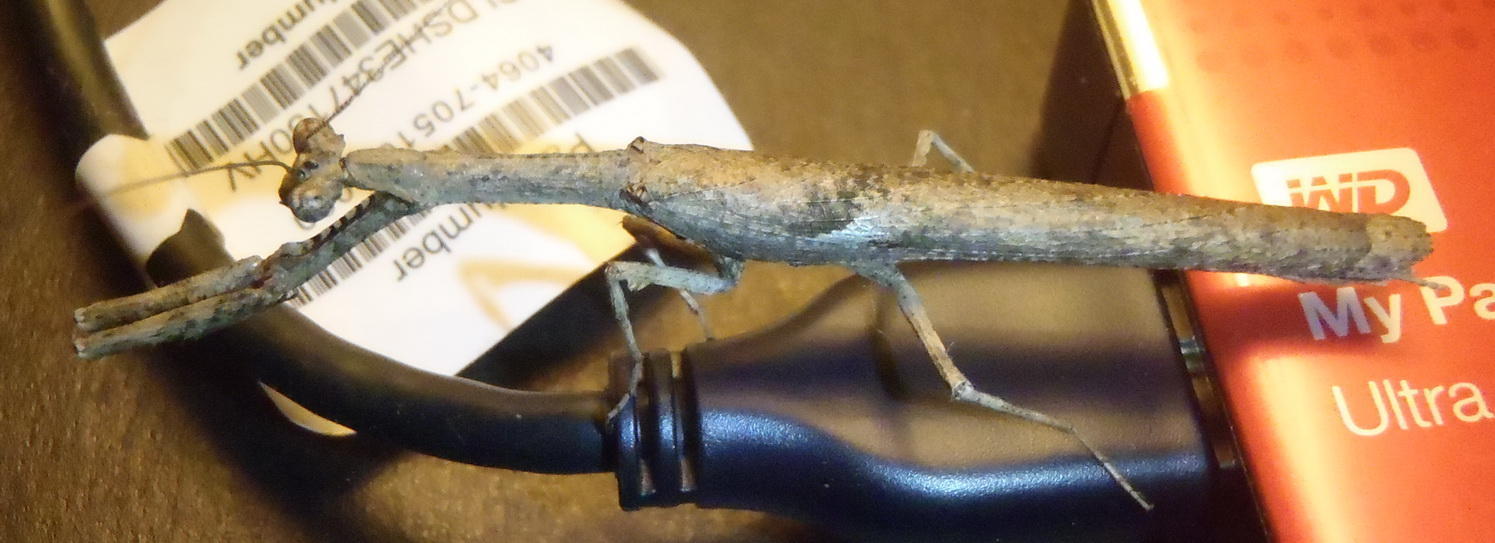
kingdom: Animalia
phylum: Arthropoda
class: Insecta
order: Mantodea
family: Deroplatyidae
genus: Popa
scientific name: Popa spurca
